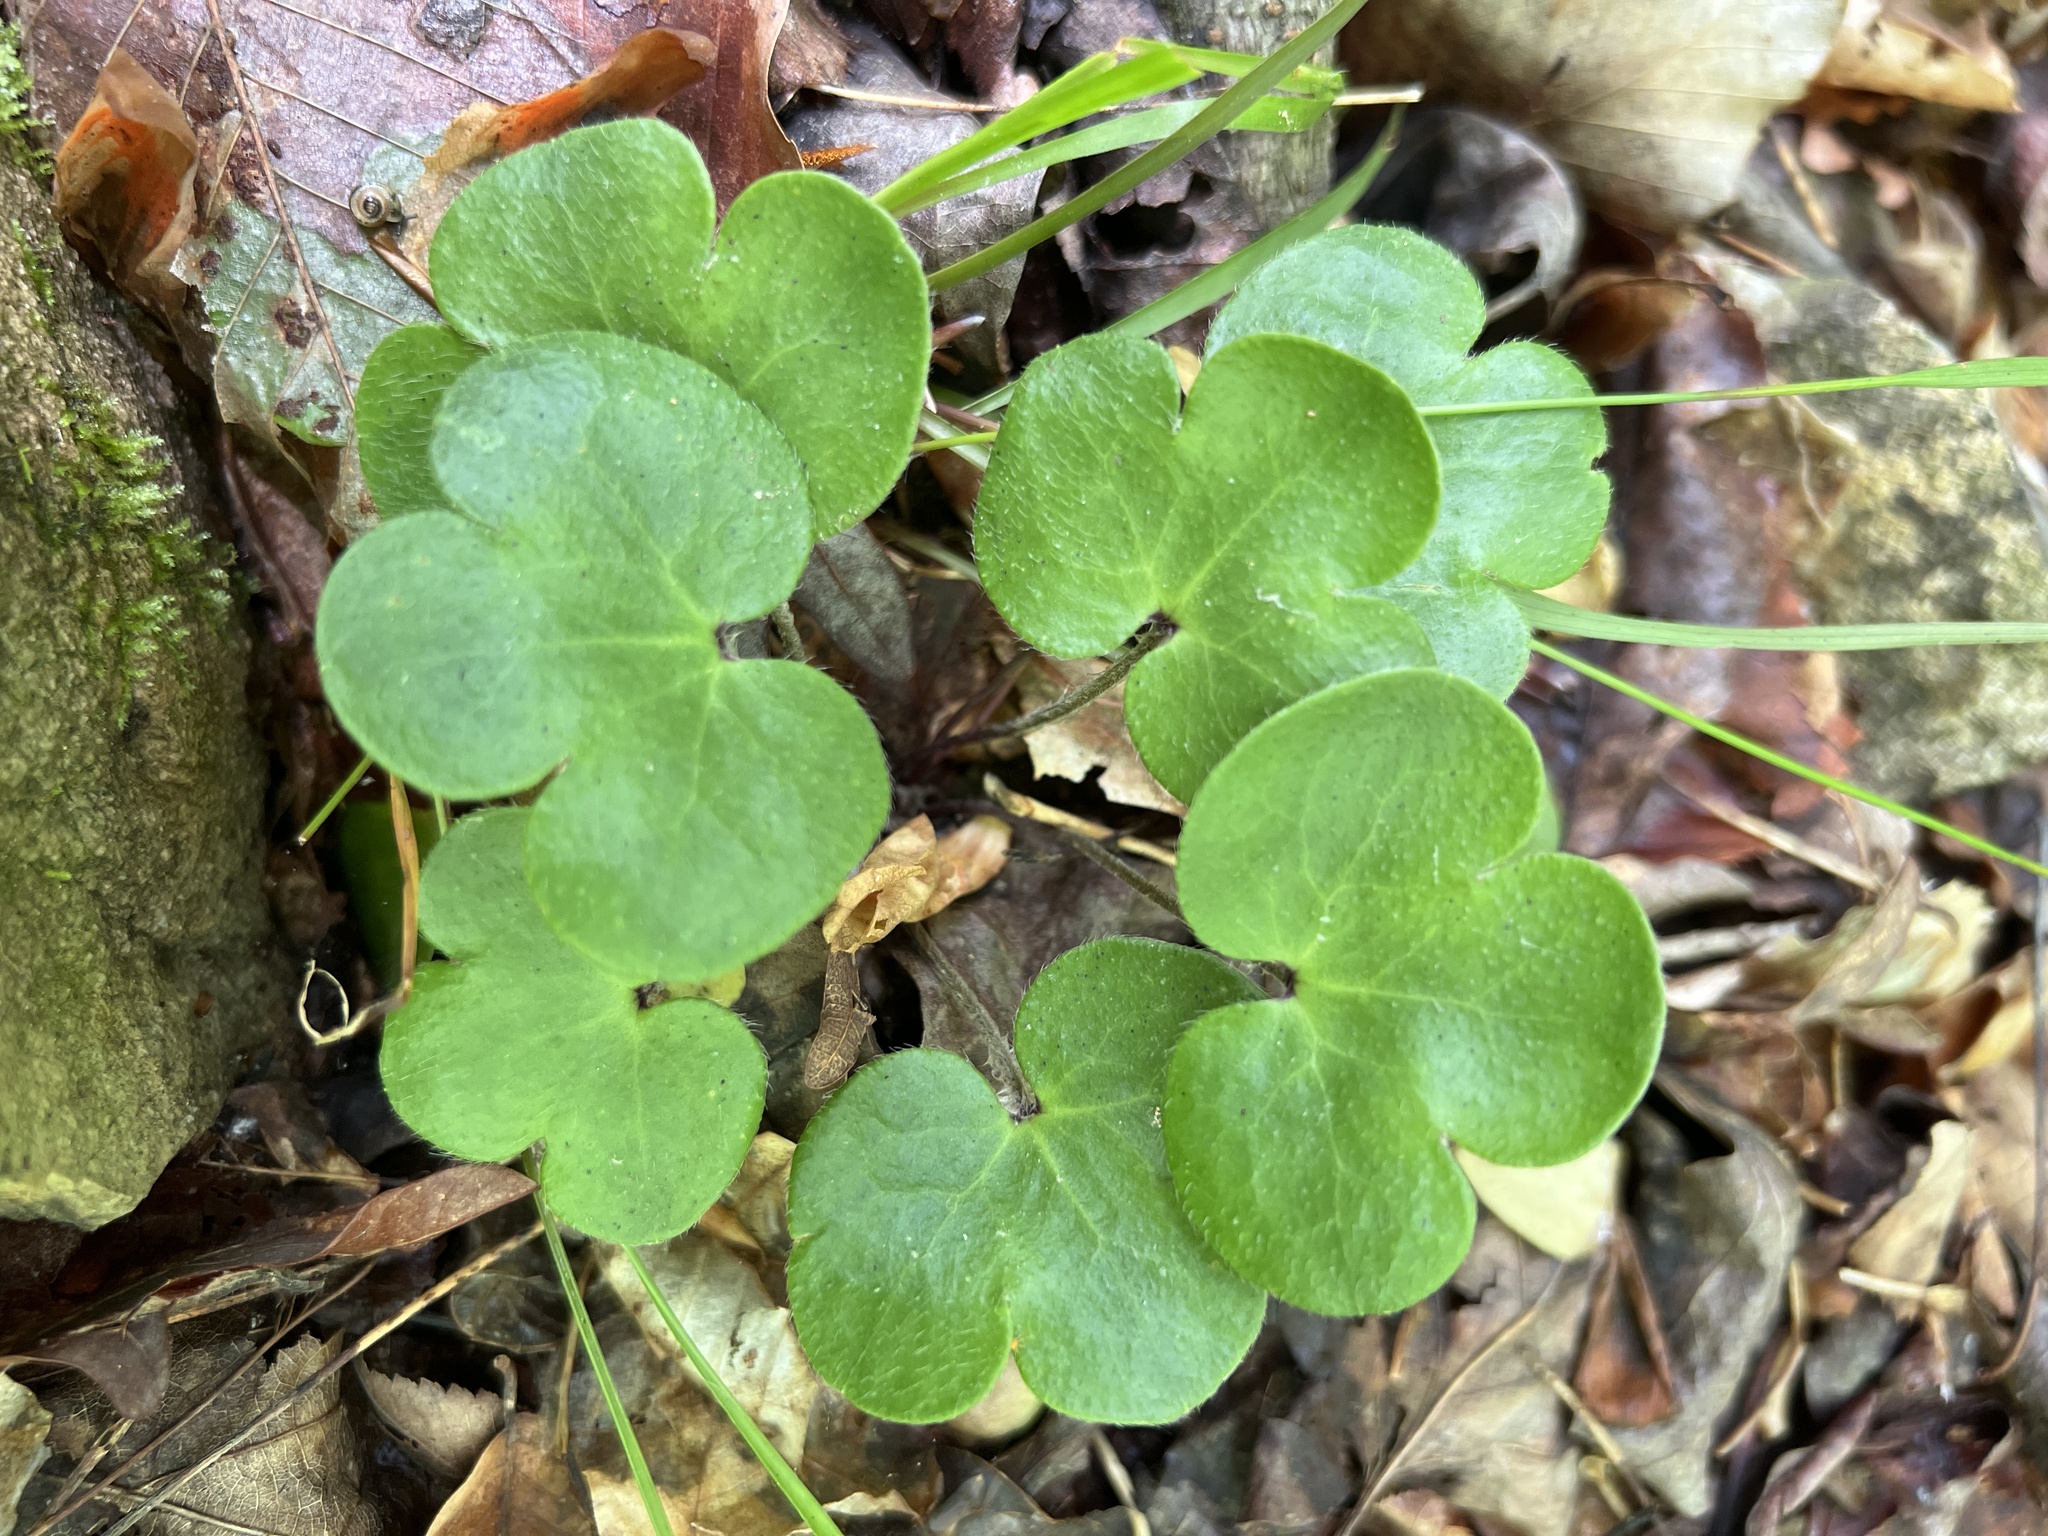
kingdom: Plantae
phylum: Tracheophyta
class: Magnoliopsida
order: Ranunculales
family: Ranunculaceae
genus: Hepatica
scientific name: Hepatica americana
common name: American hepatica
